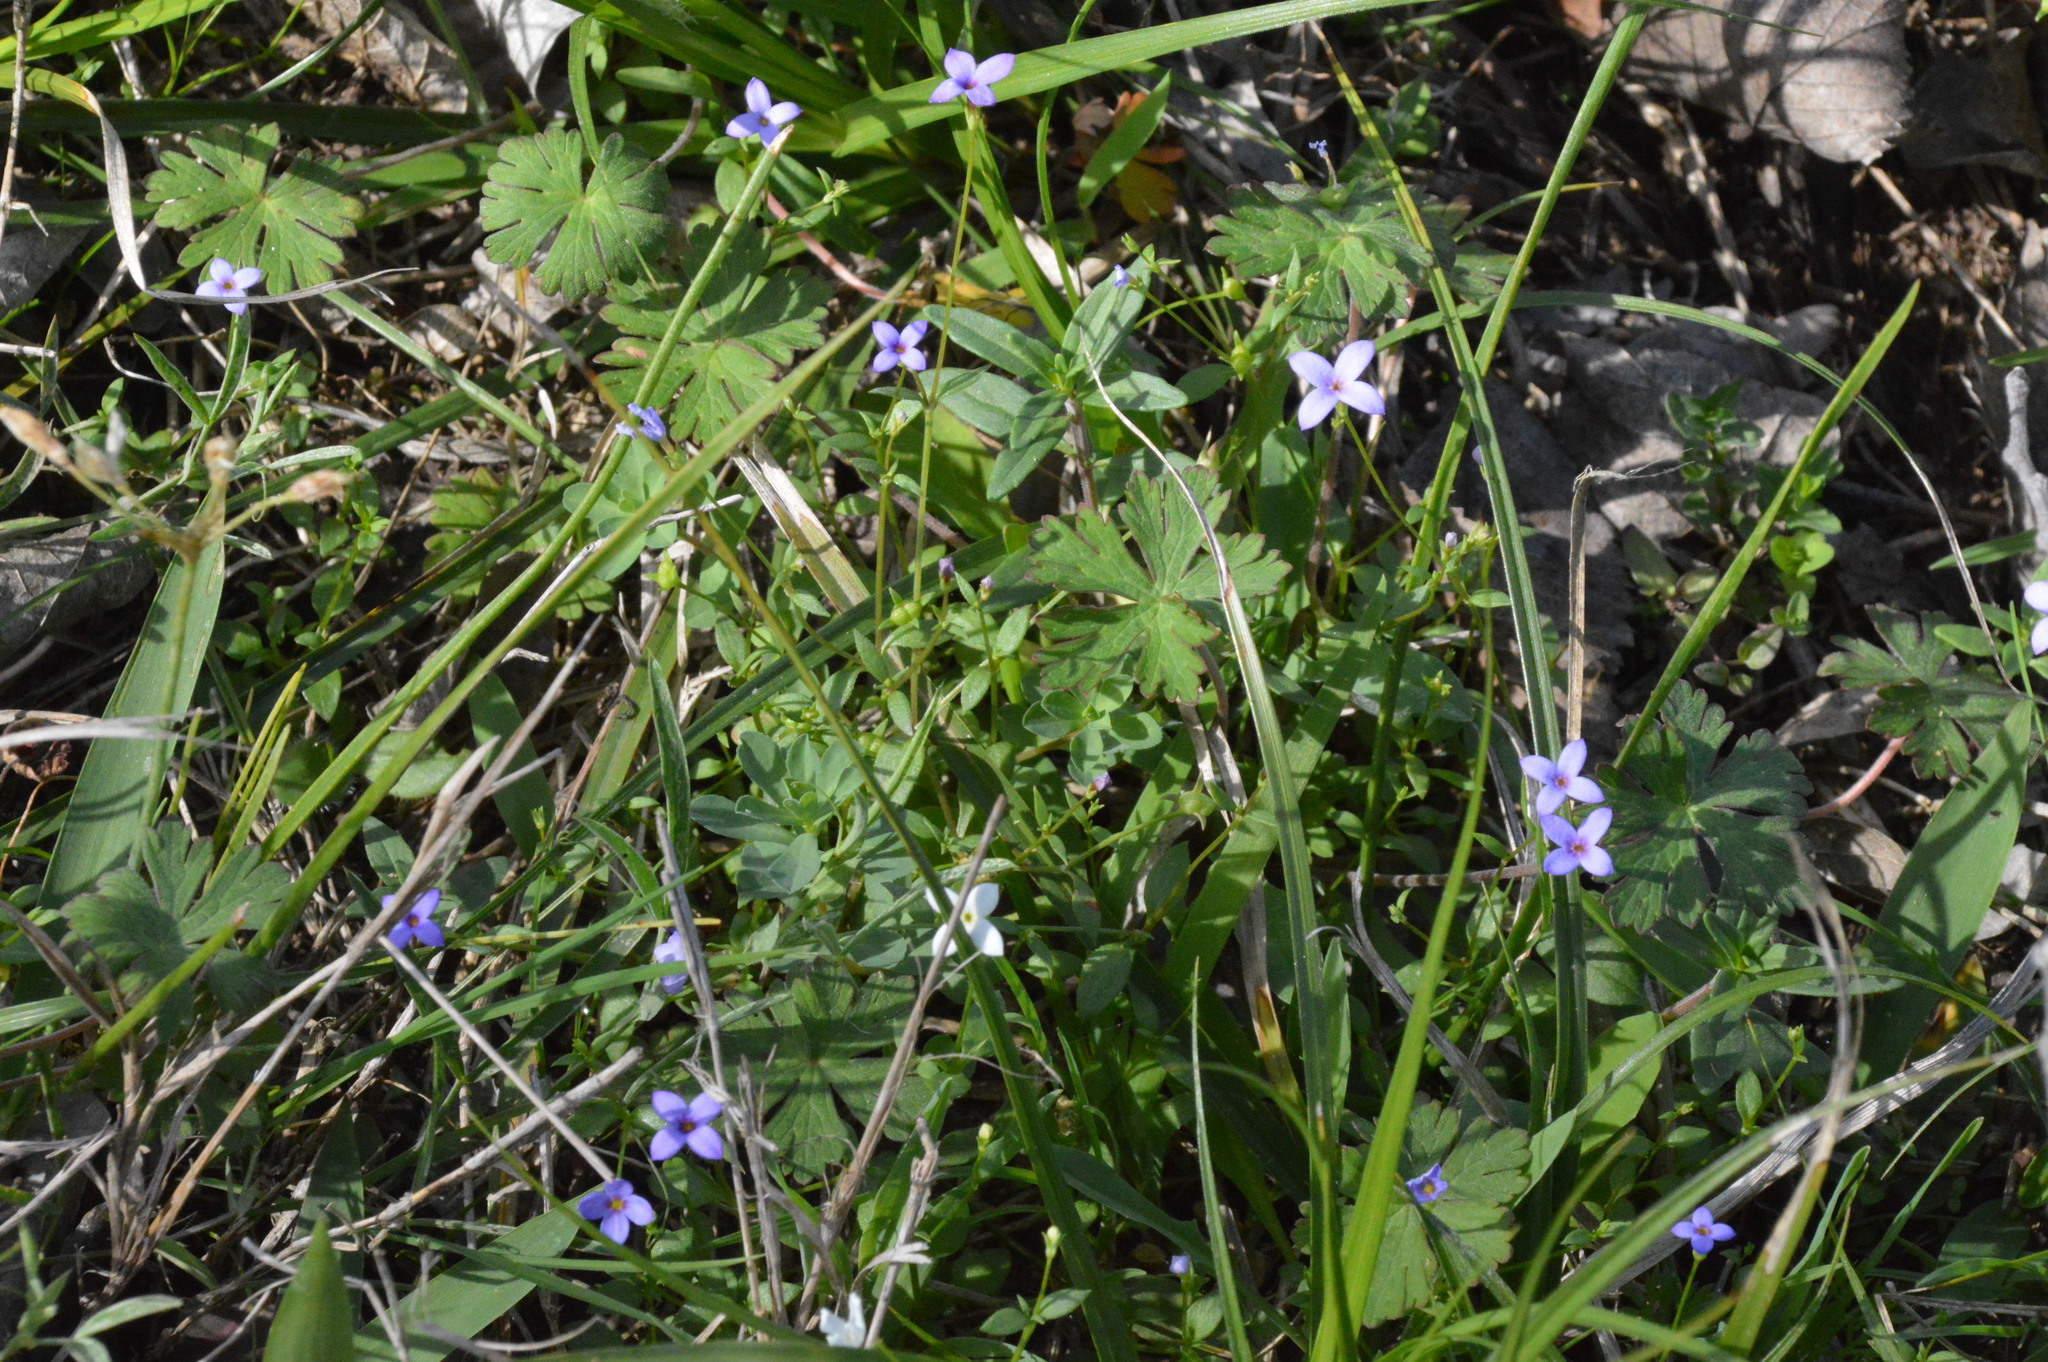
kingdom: Plantae
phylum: Tracheophyta
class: Magnoliopsida
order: Gentianales
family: Rubiaceae
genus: Houstonia
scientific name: Houstonia pusilla
